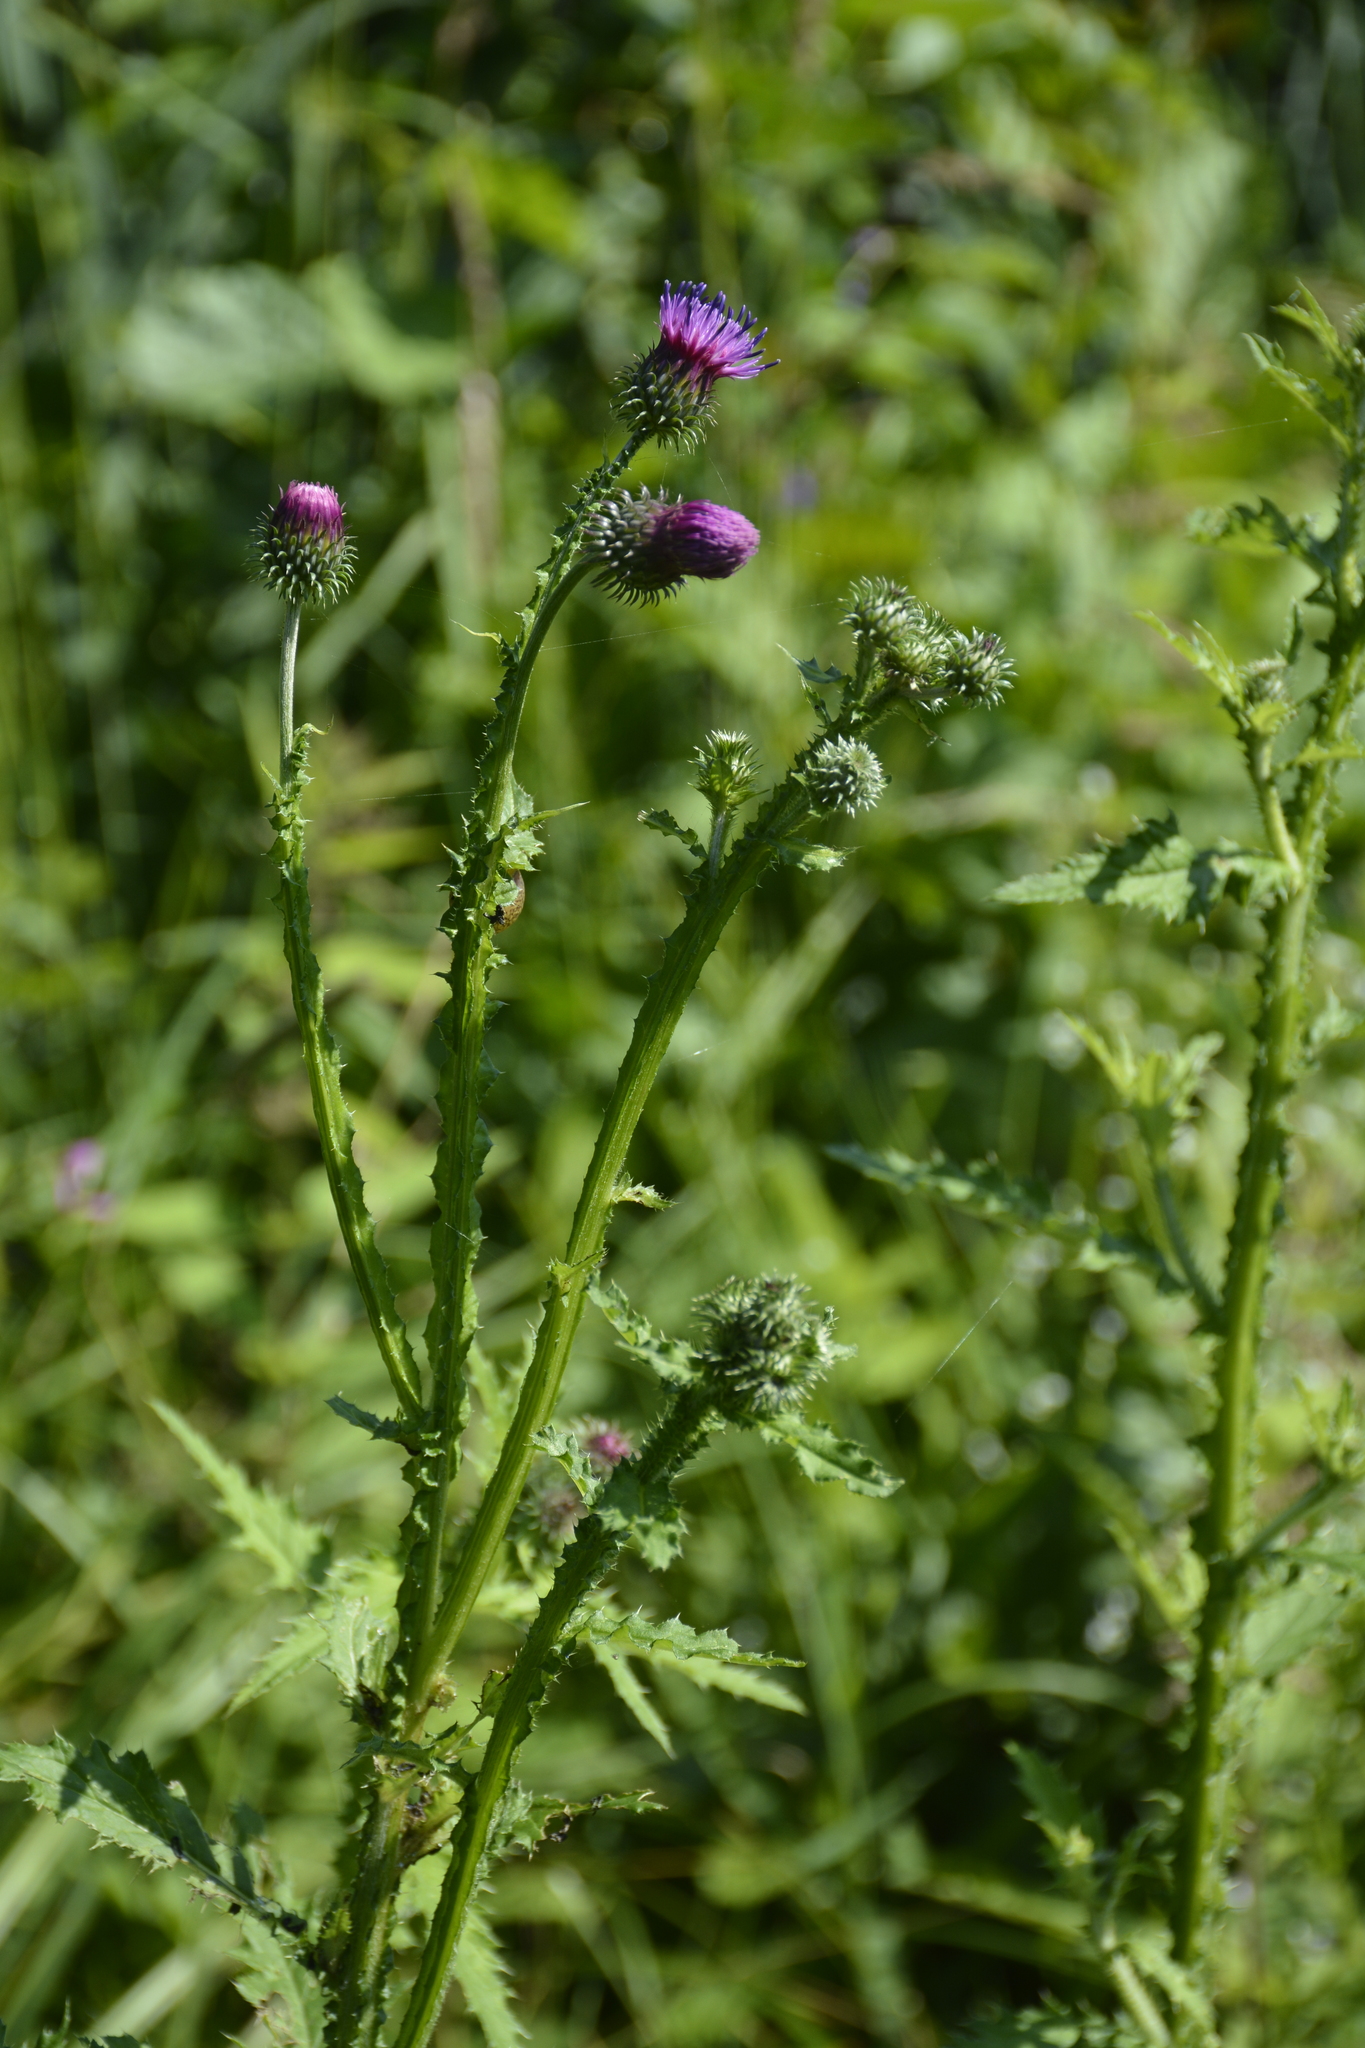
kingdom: Plantae
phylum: Tracheophyta
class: Magnoliopsida
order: Asterales
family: Asteraceae
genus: Carduus
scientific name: Carduus crispus
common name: Welted thistle
